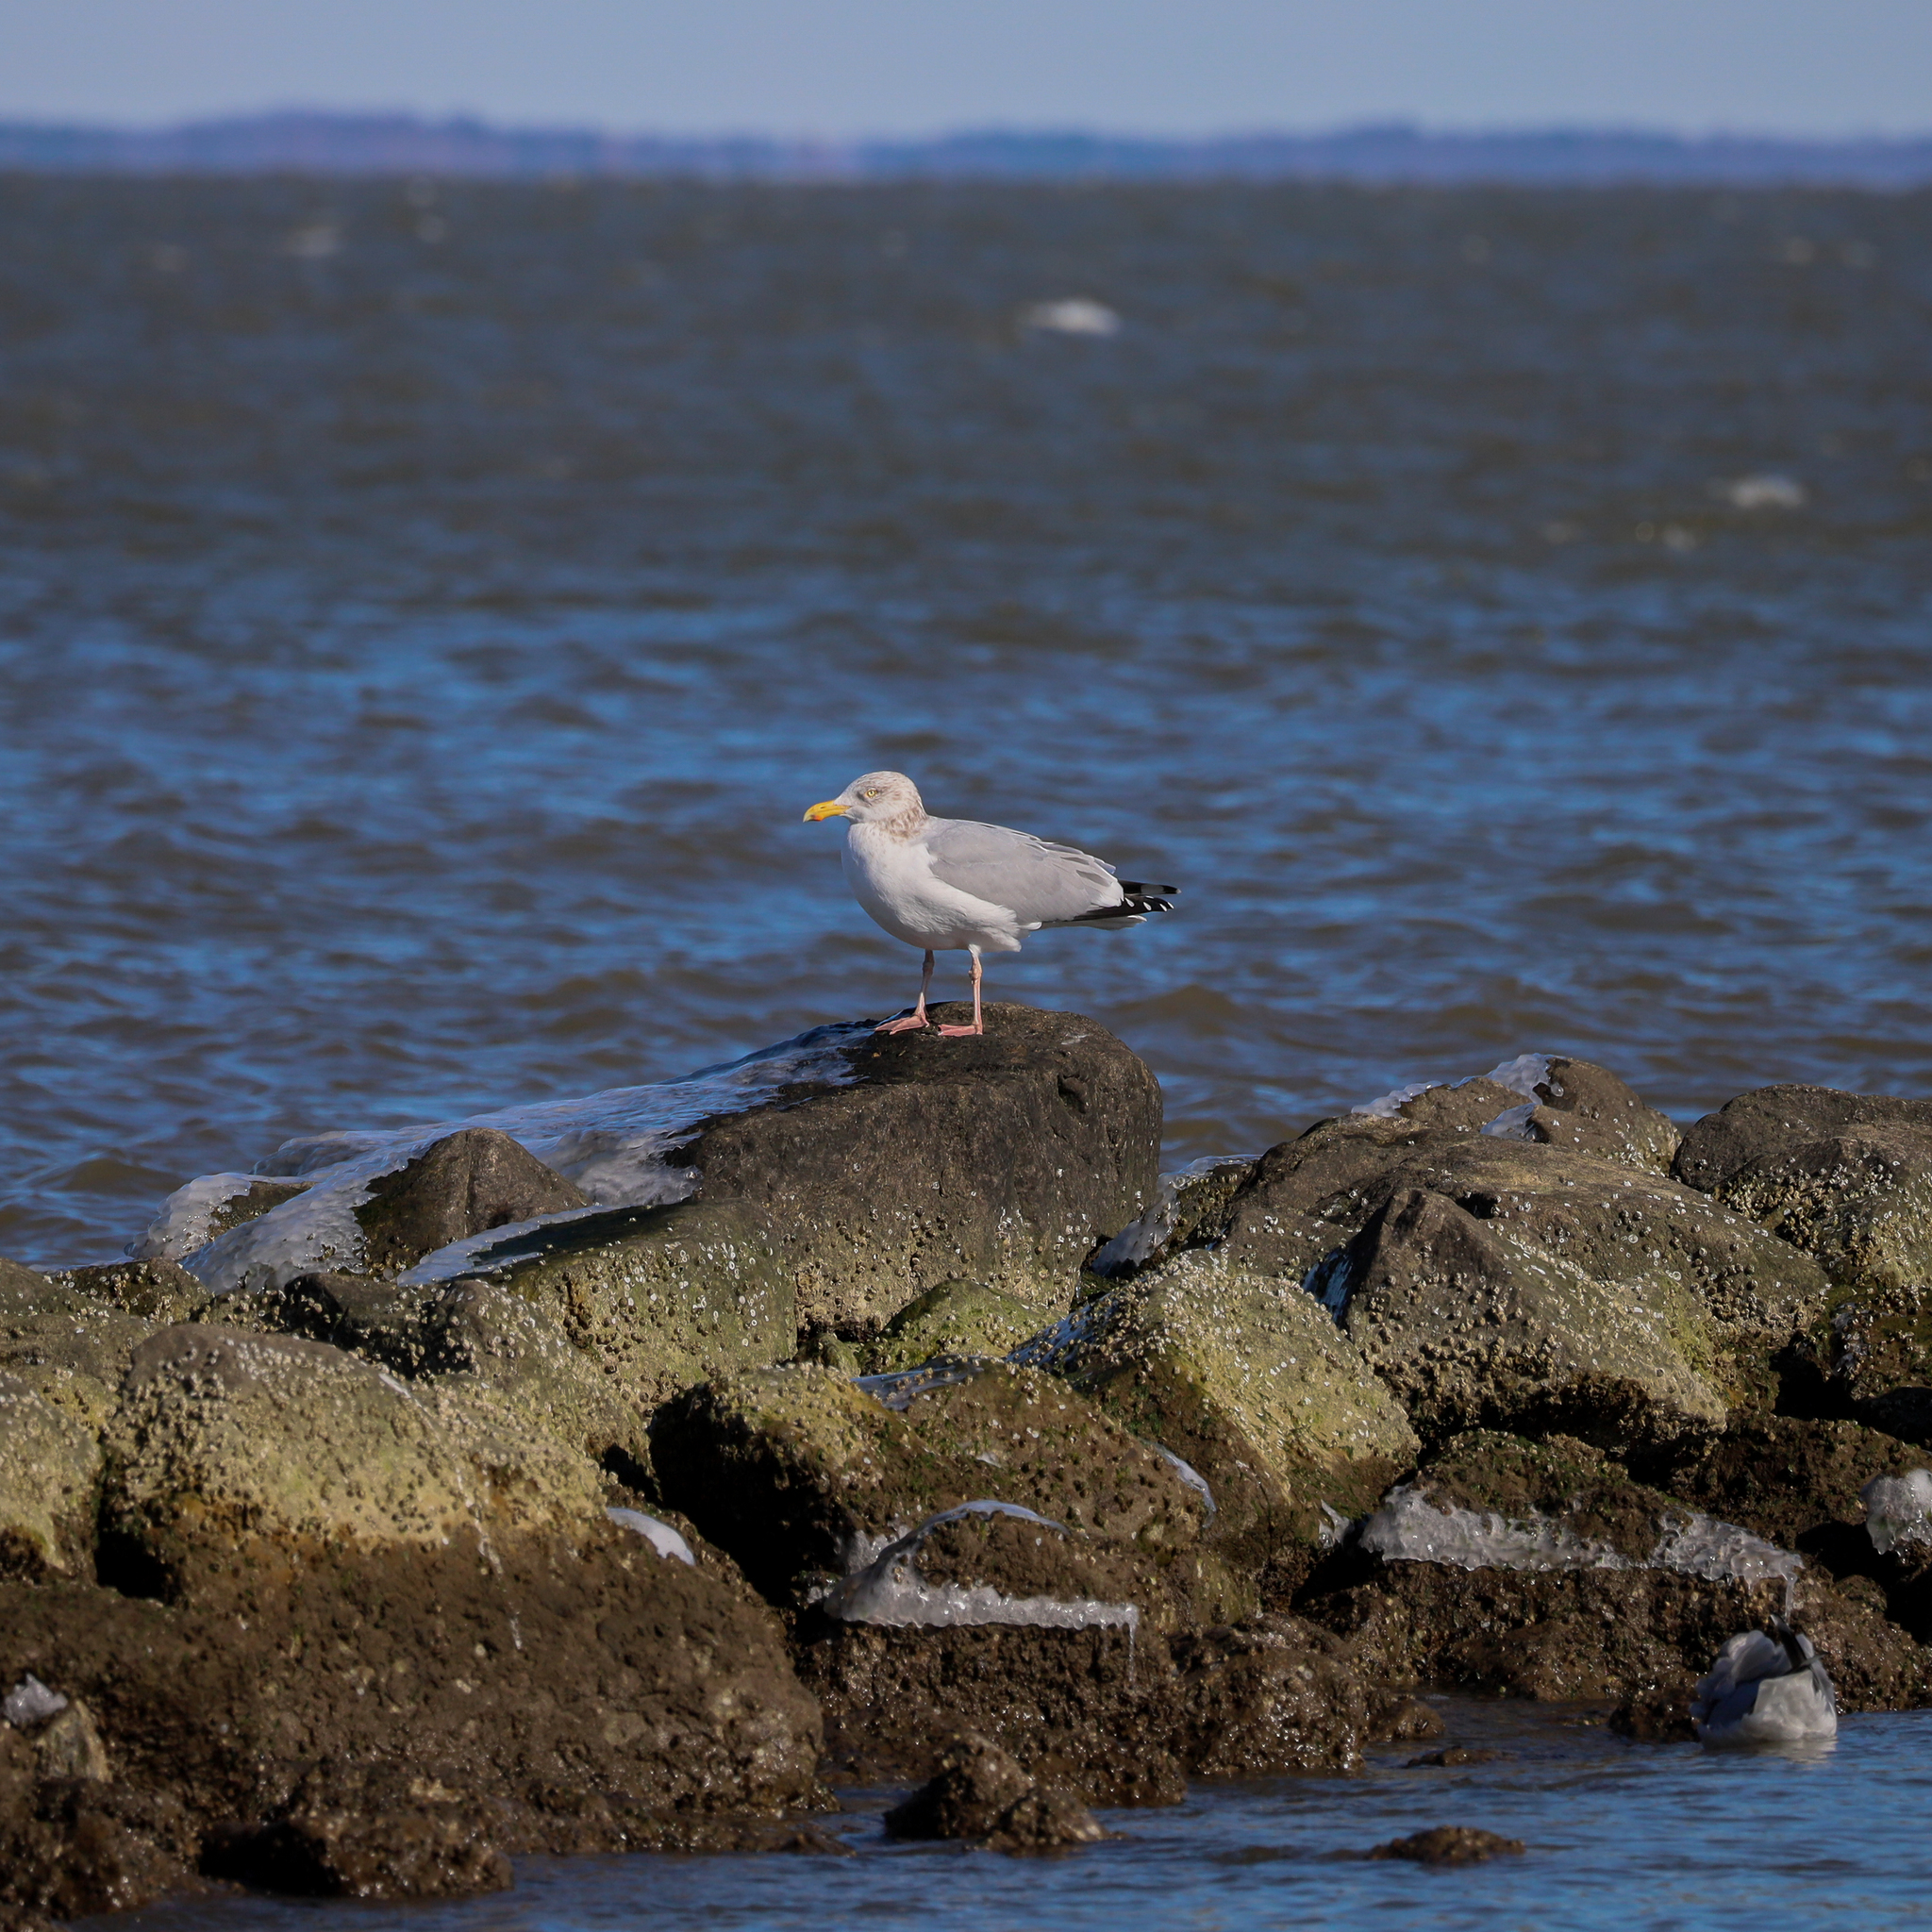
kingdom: Animalia
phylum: Chordata
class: Aves
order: Charadriiformes
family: Laridae
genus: Larus
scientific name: Larus argentatus
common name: Herring gull
